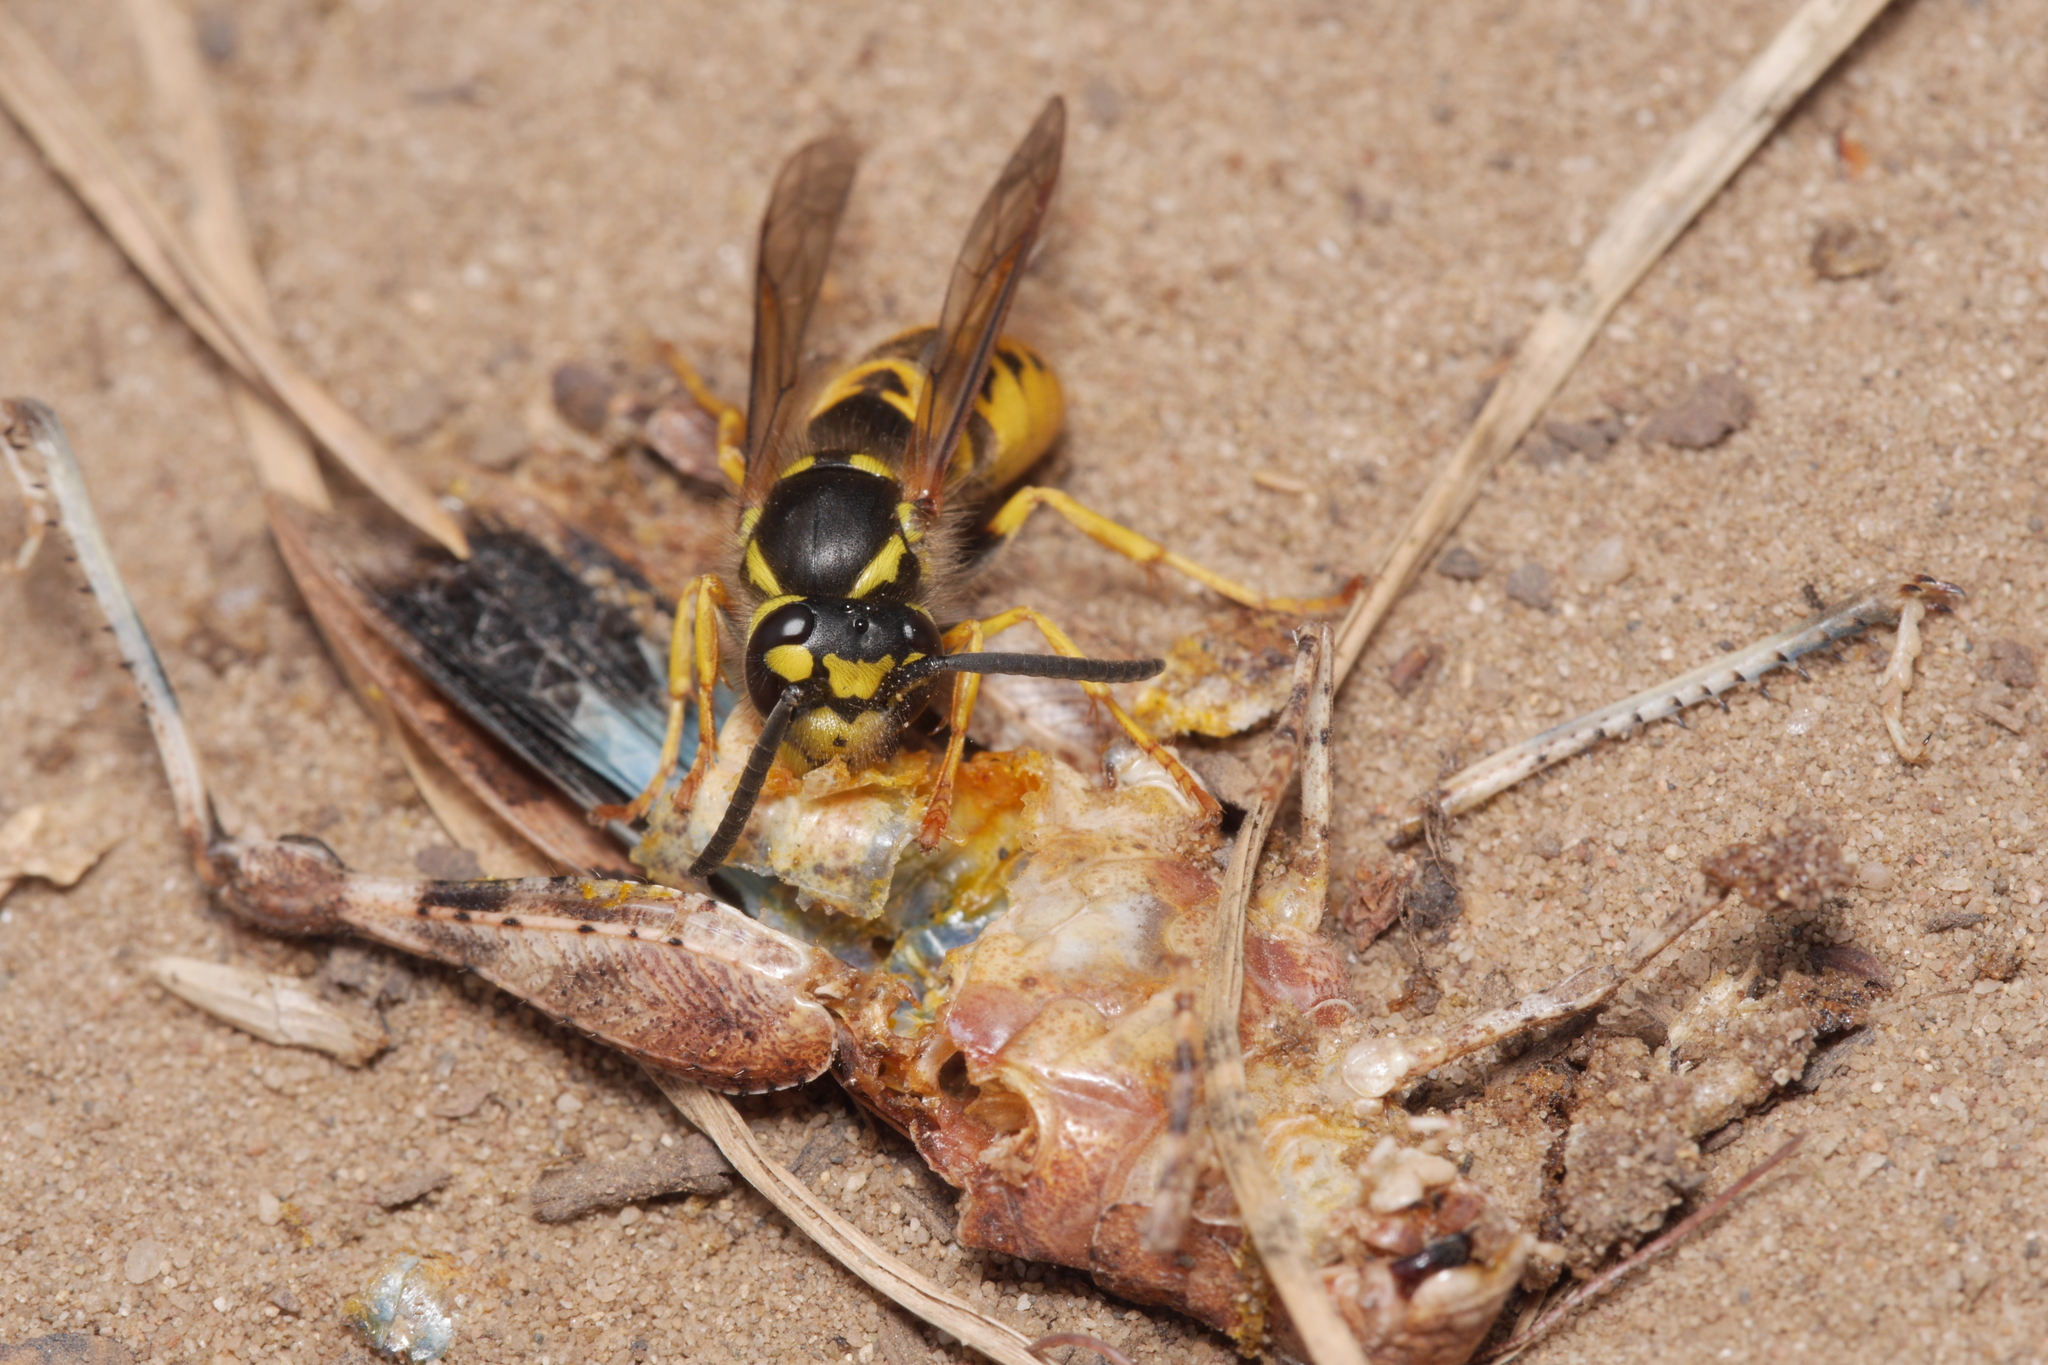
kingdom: Animalia
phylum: Arthropoda
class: Insecta
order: Orthoptera
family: Acrididae
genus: Oedipoda
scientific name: Oedipoda caerulescens
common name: Blue-winged grasshopper
